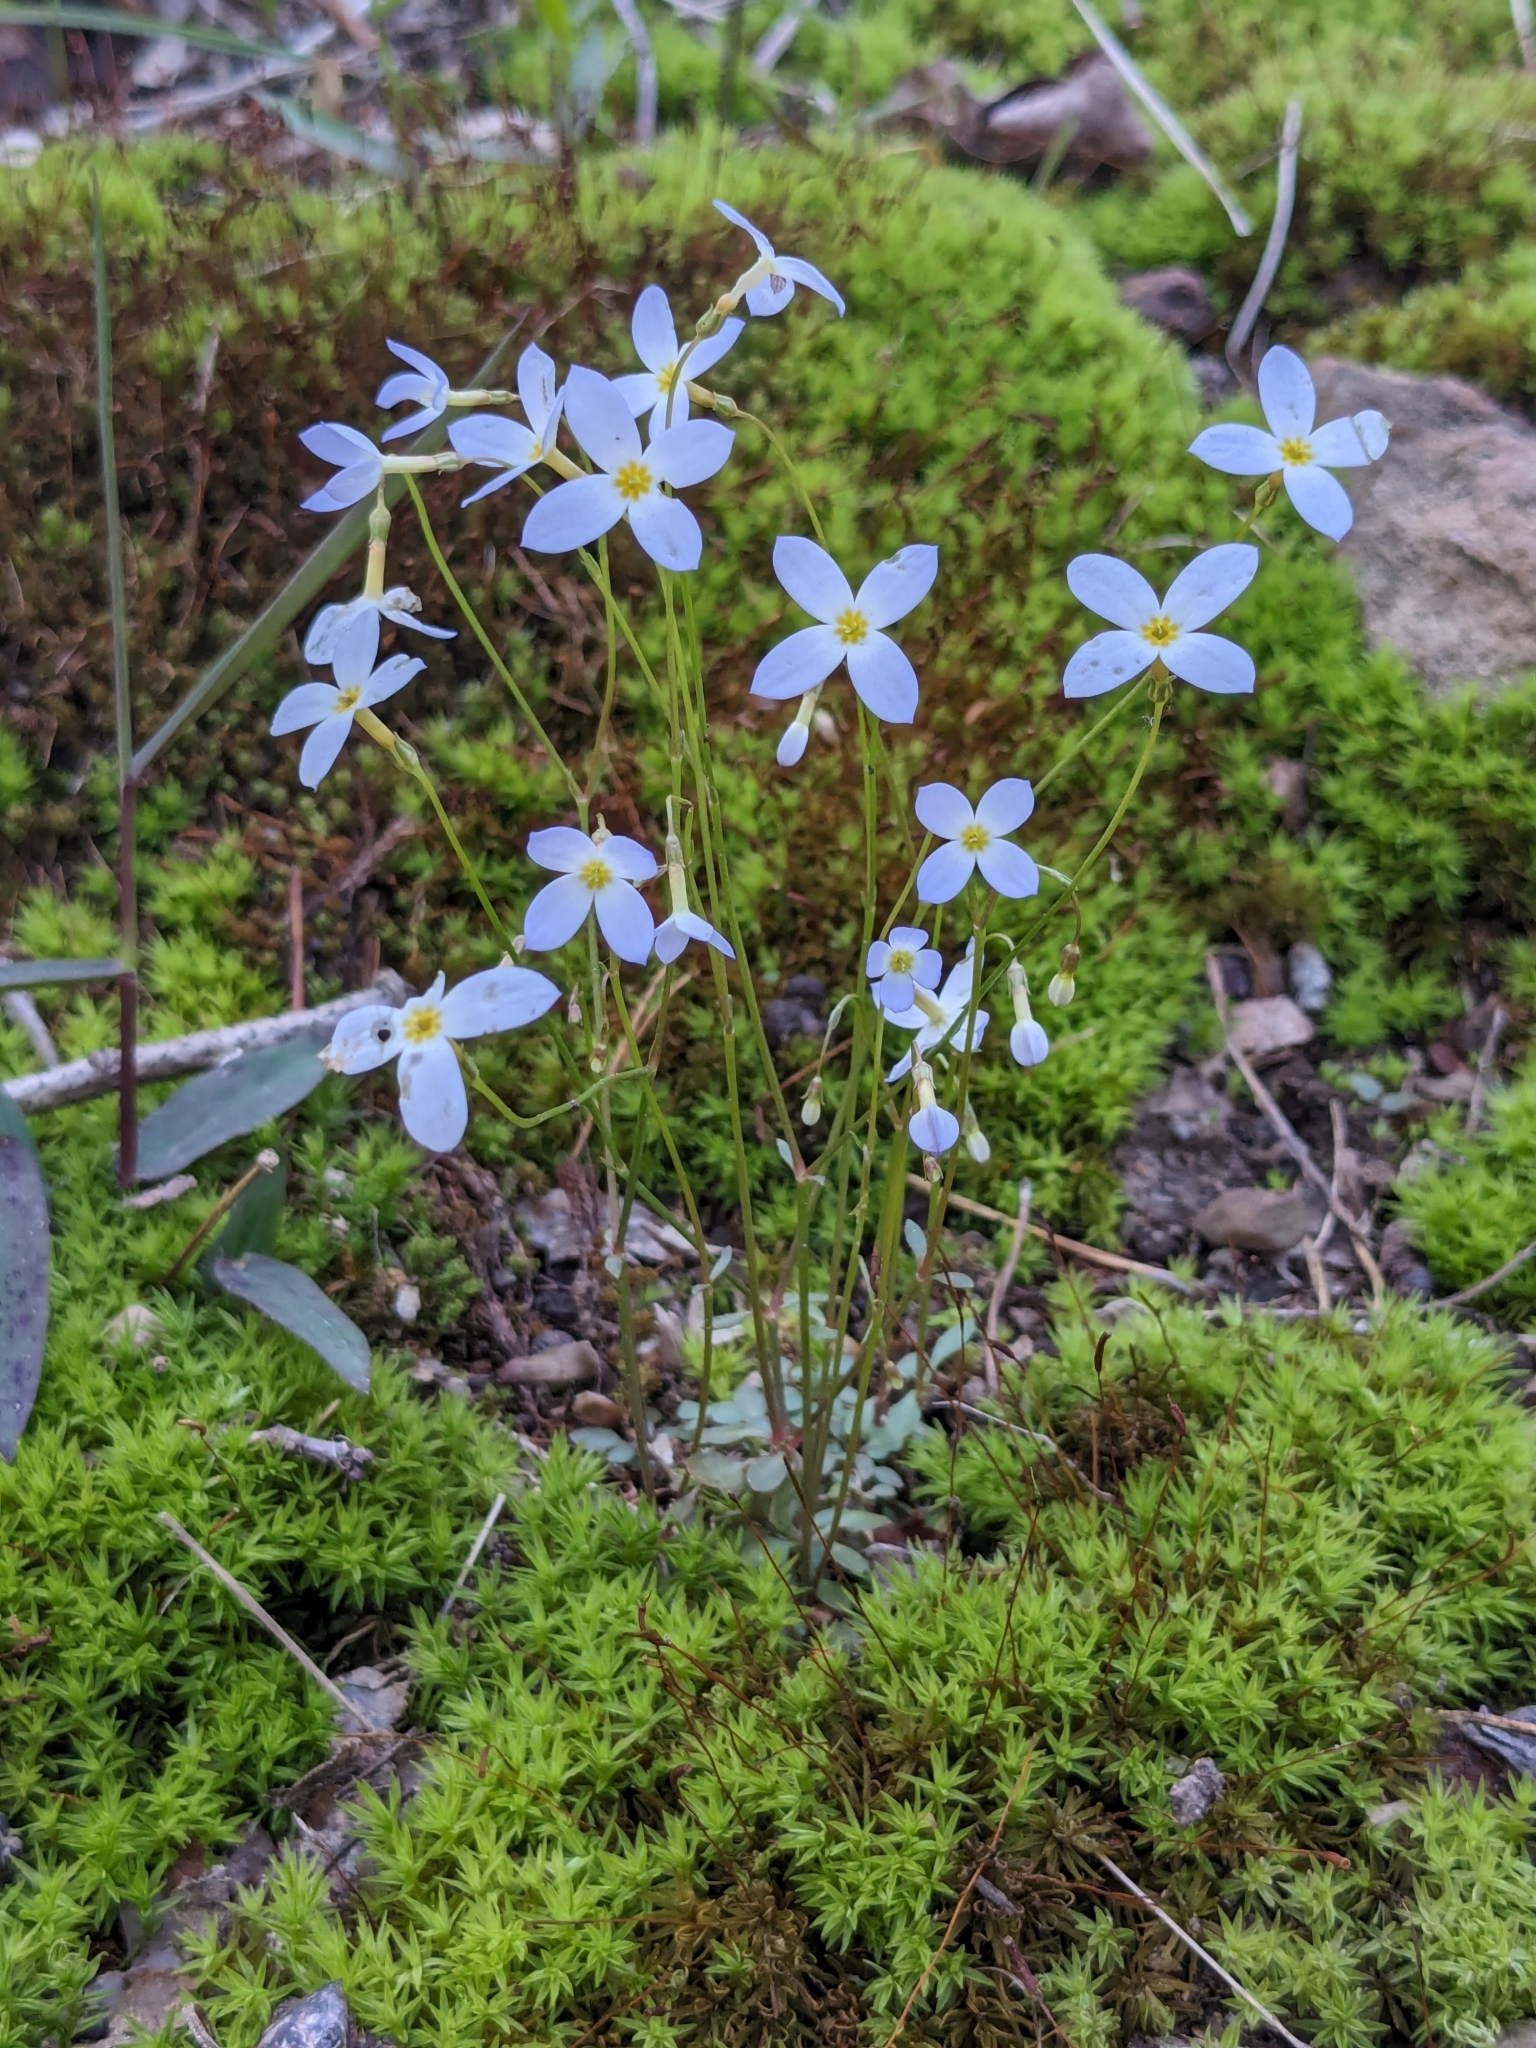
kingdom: Plantae
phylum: Tracheophyta
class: Magnoliopsida
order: Gentianales
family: Rubiaceae
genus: Houstonia
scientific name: Houstonia caerulea
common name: Bluets
